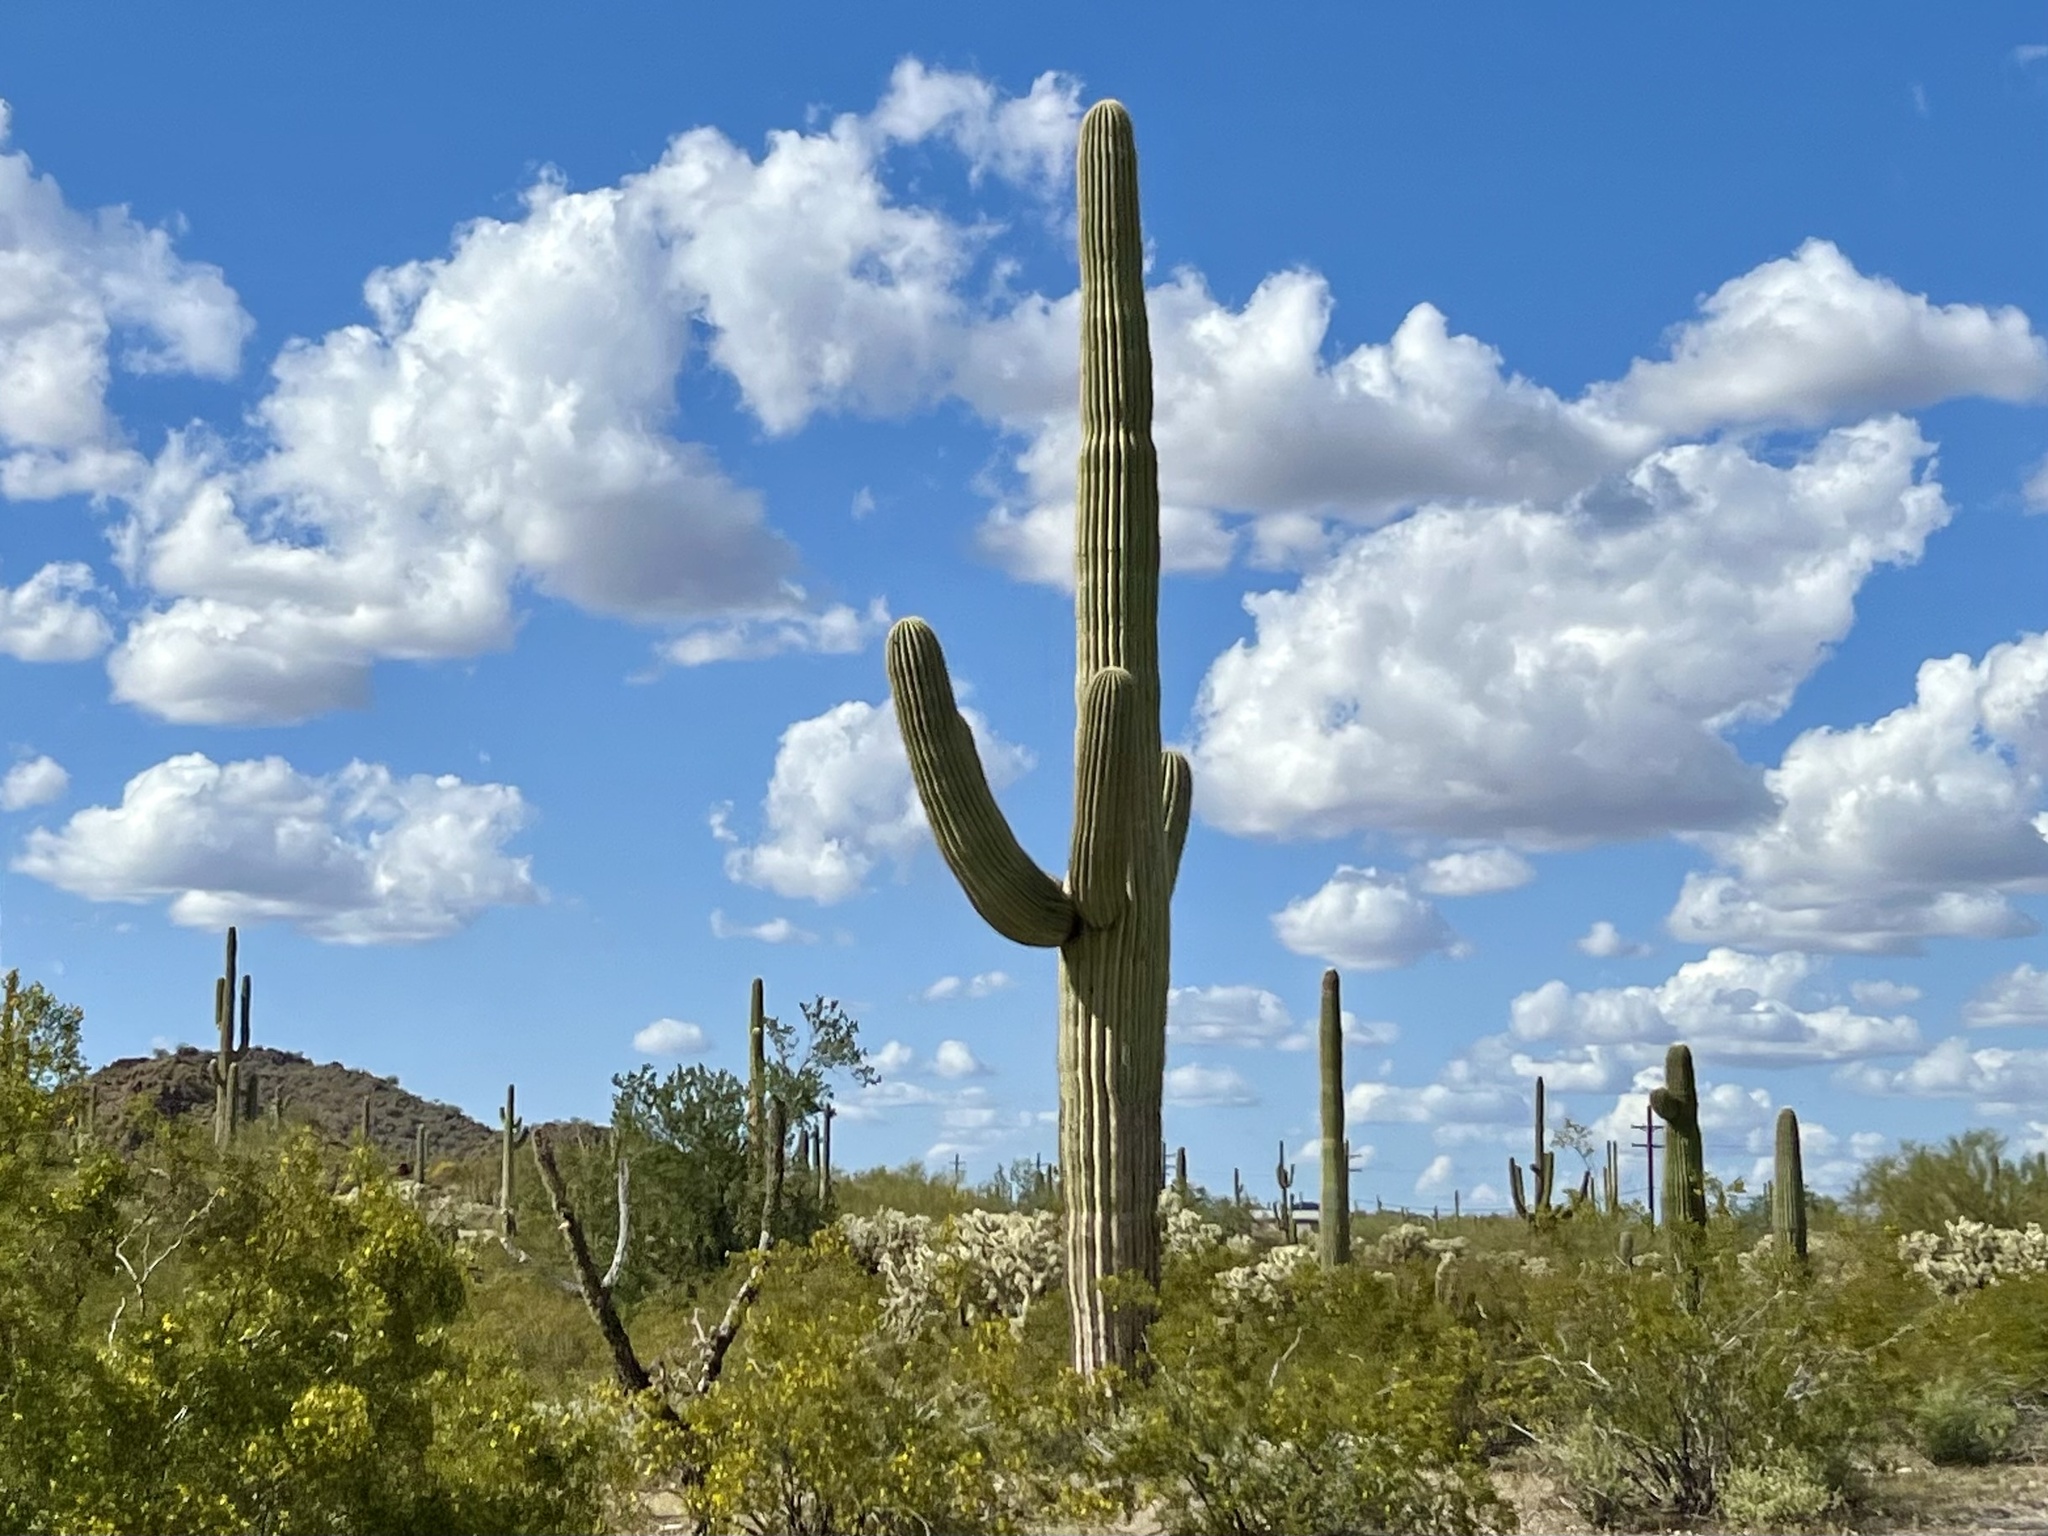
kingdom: Plantae
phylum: Tracheophyta
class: Magnoliopsida
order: Caryophyllales
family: Cactaceae
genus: Carnegiea
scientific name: Carnegiea gigantea
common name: Saguaro
